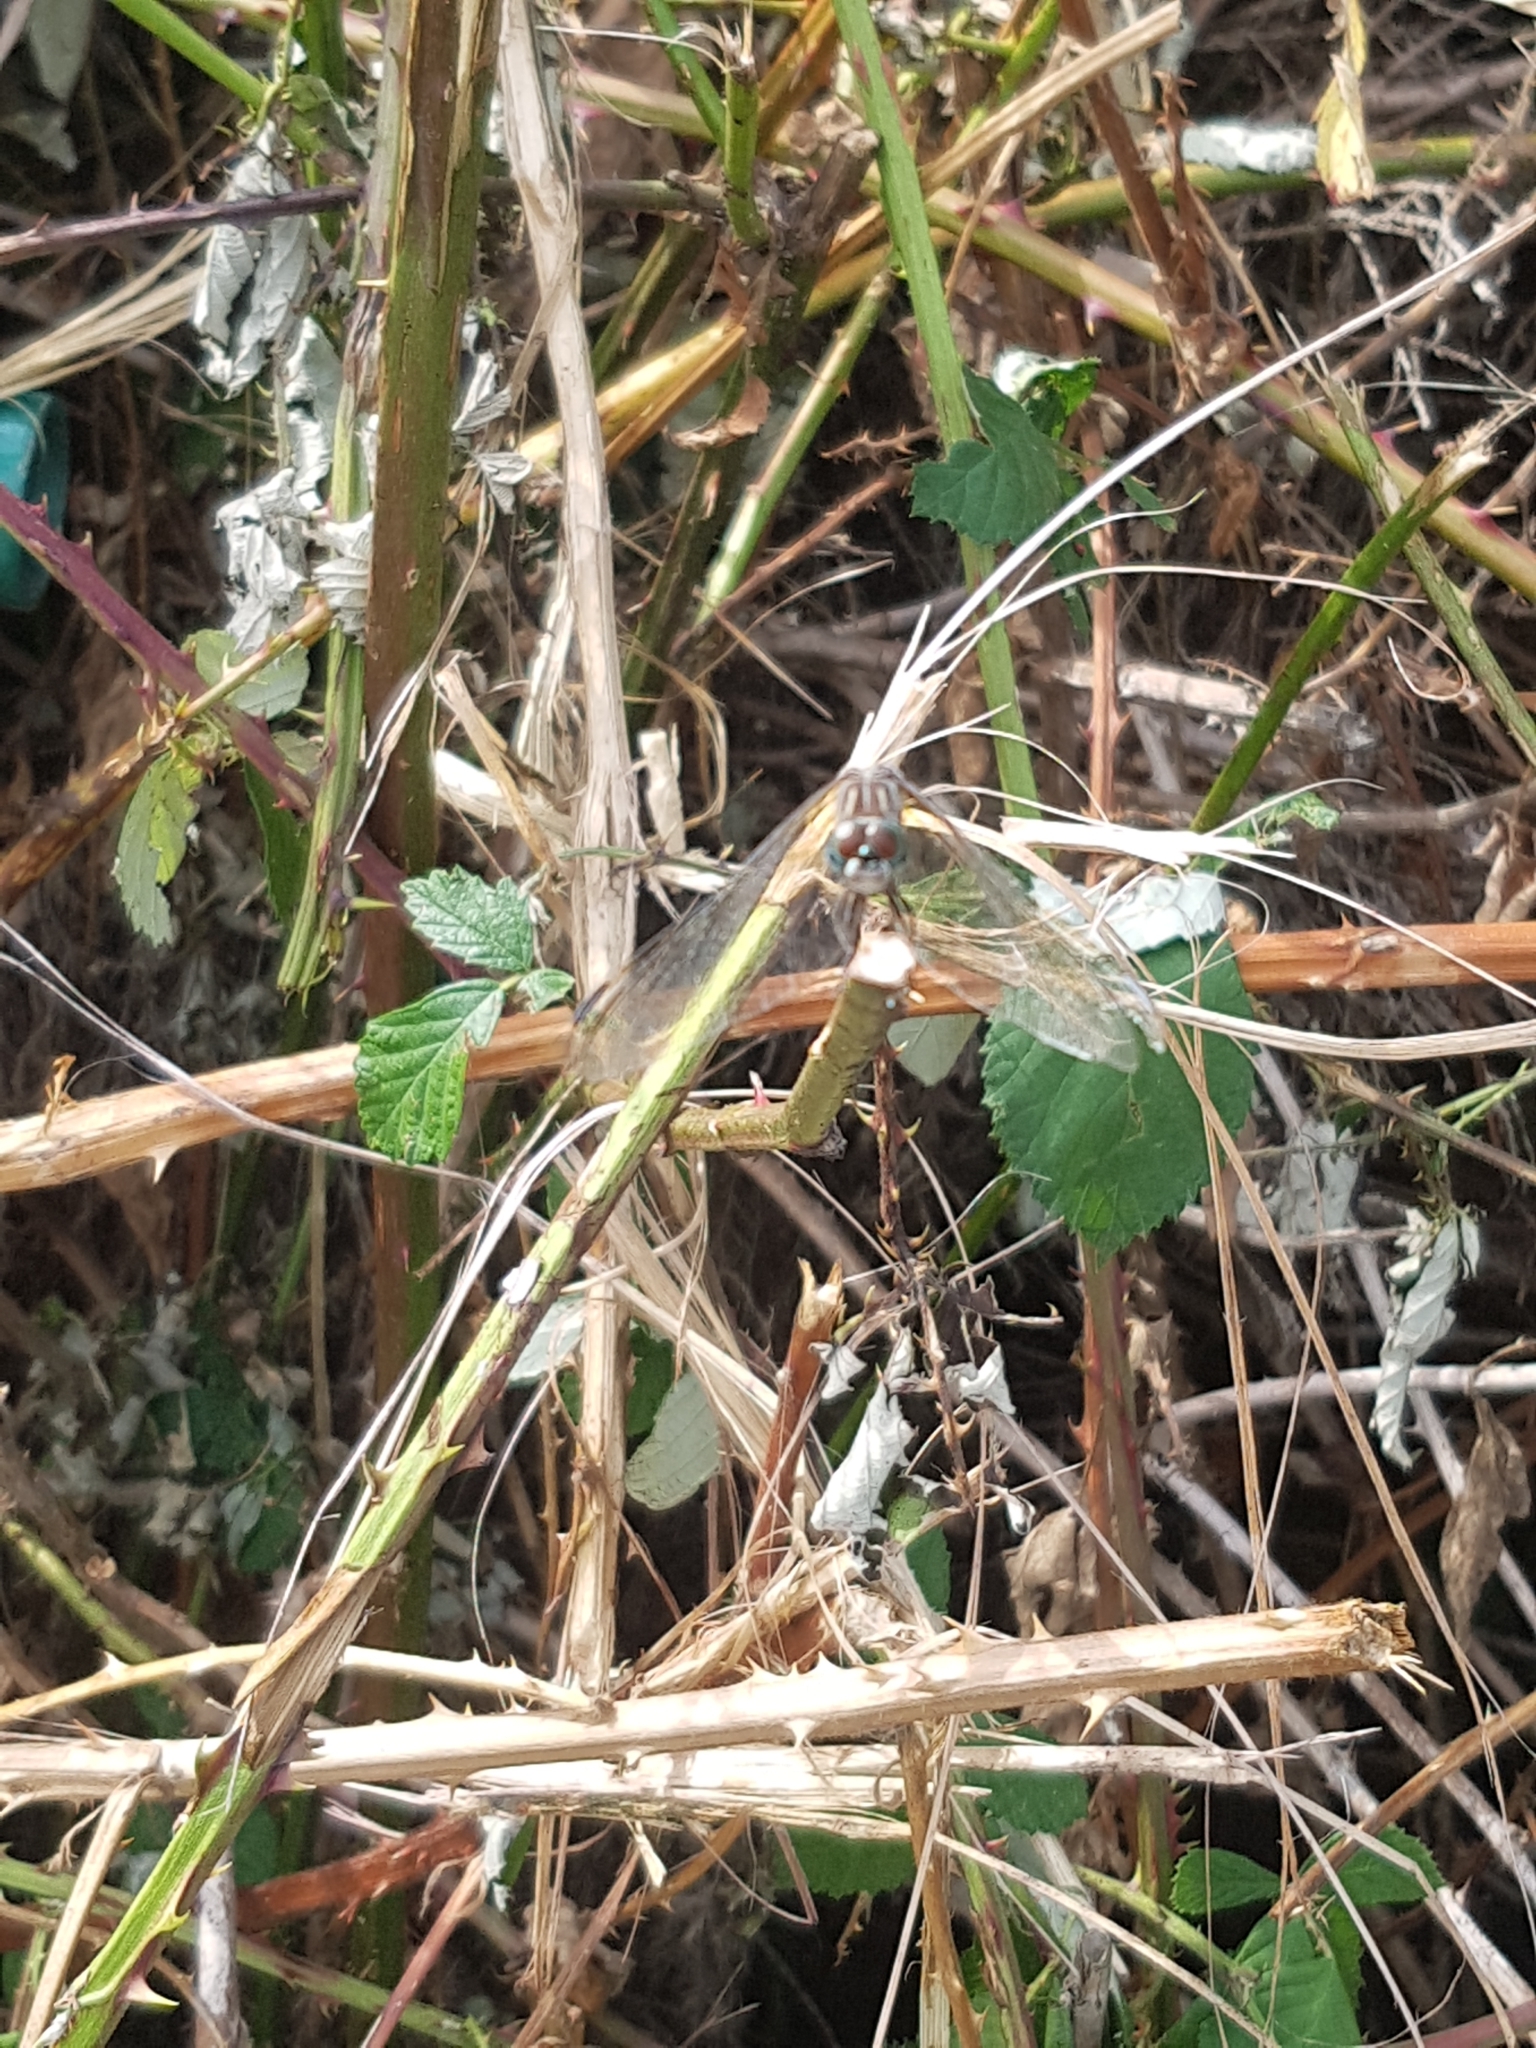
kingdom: Animalia
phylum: Arthropoda
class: Insecta
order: Odonata
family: Libellulidae
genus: Pachydiplax
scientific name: Pachydiplax longipennis
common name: Blue dasher
